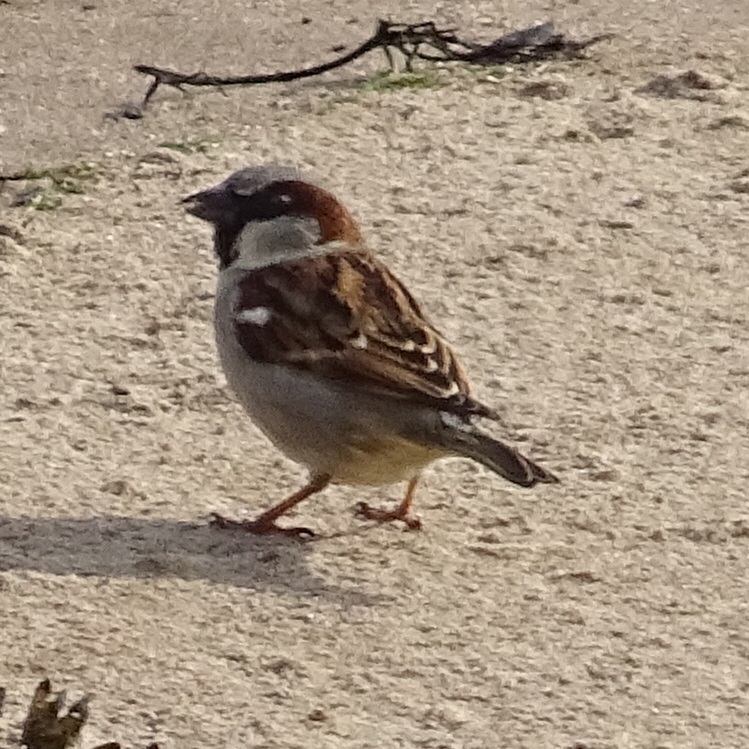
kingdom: Animalia
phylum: Chordata
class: Aves
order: Passeriformes
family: Passeridae
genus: Passer
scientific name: Passer domesticus
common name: House sparrow
